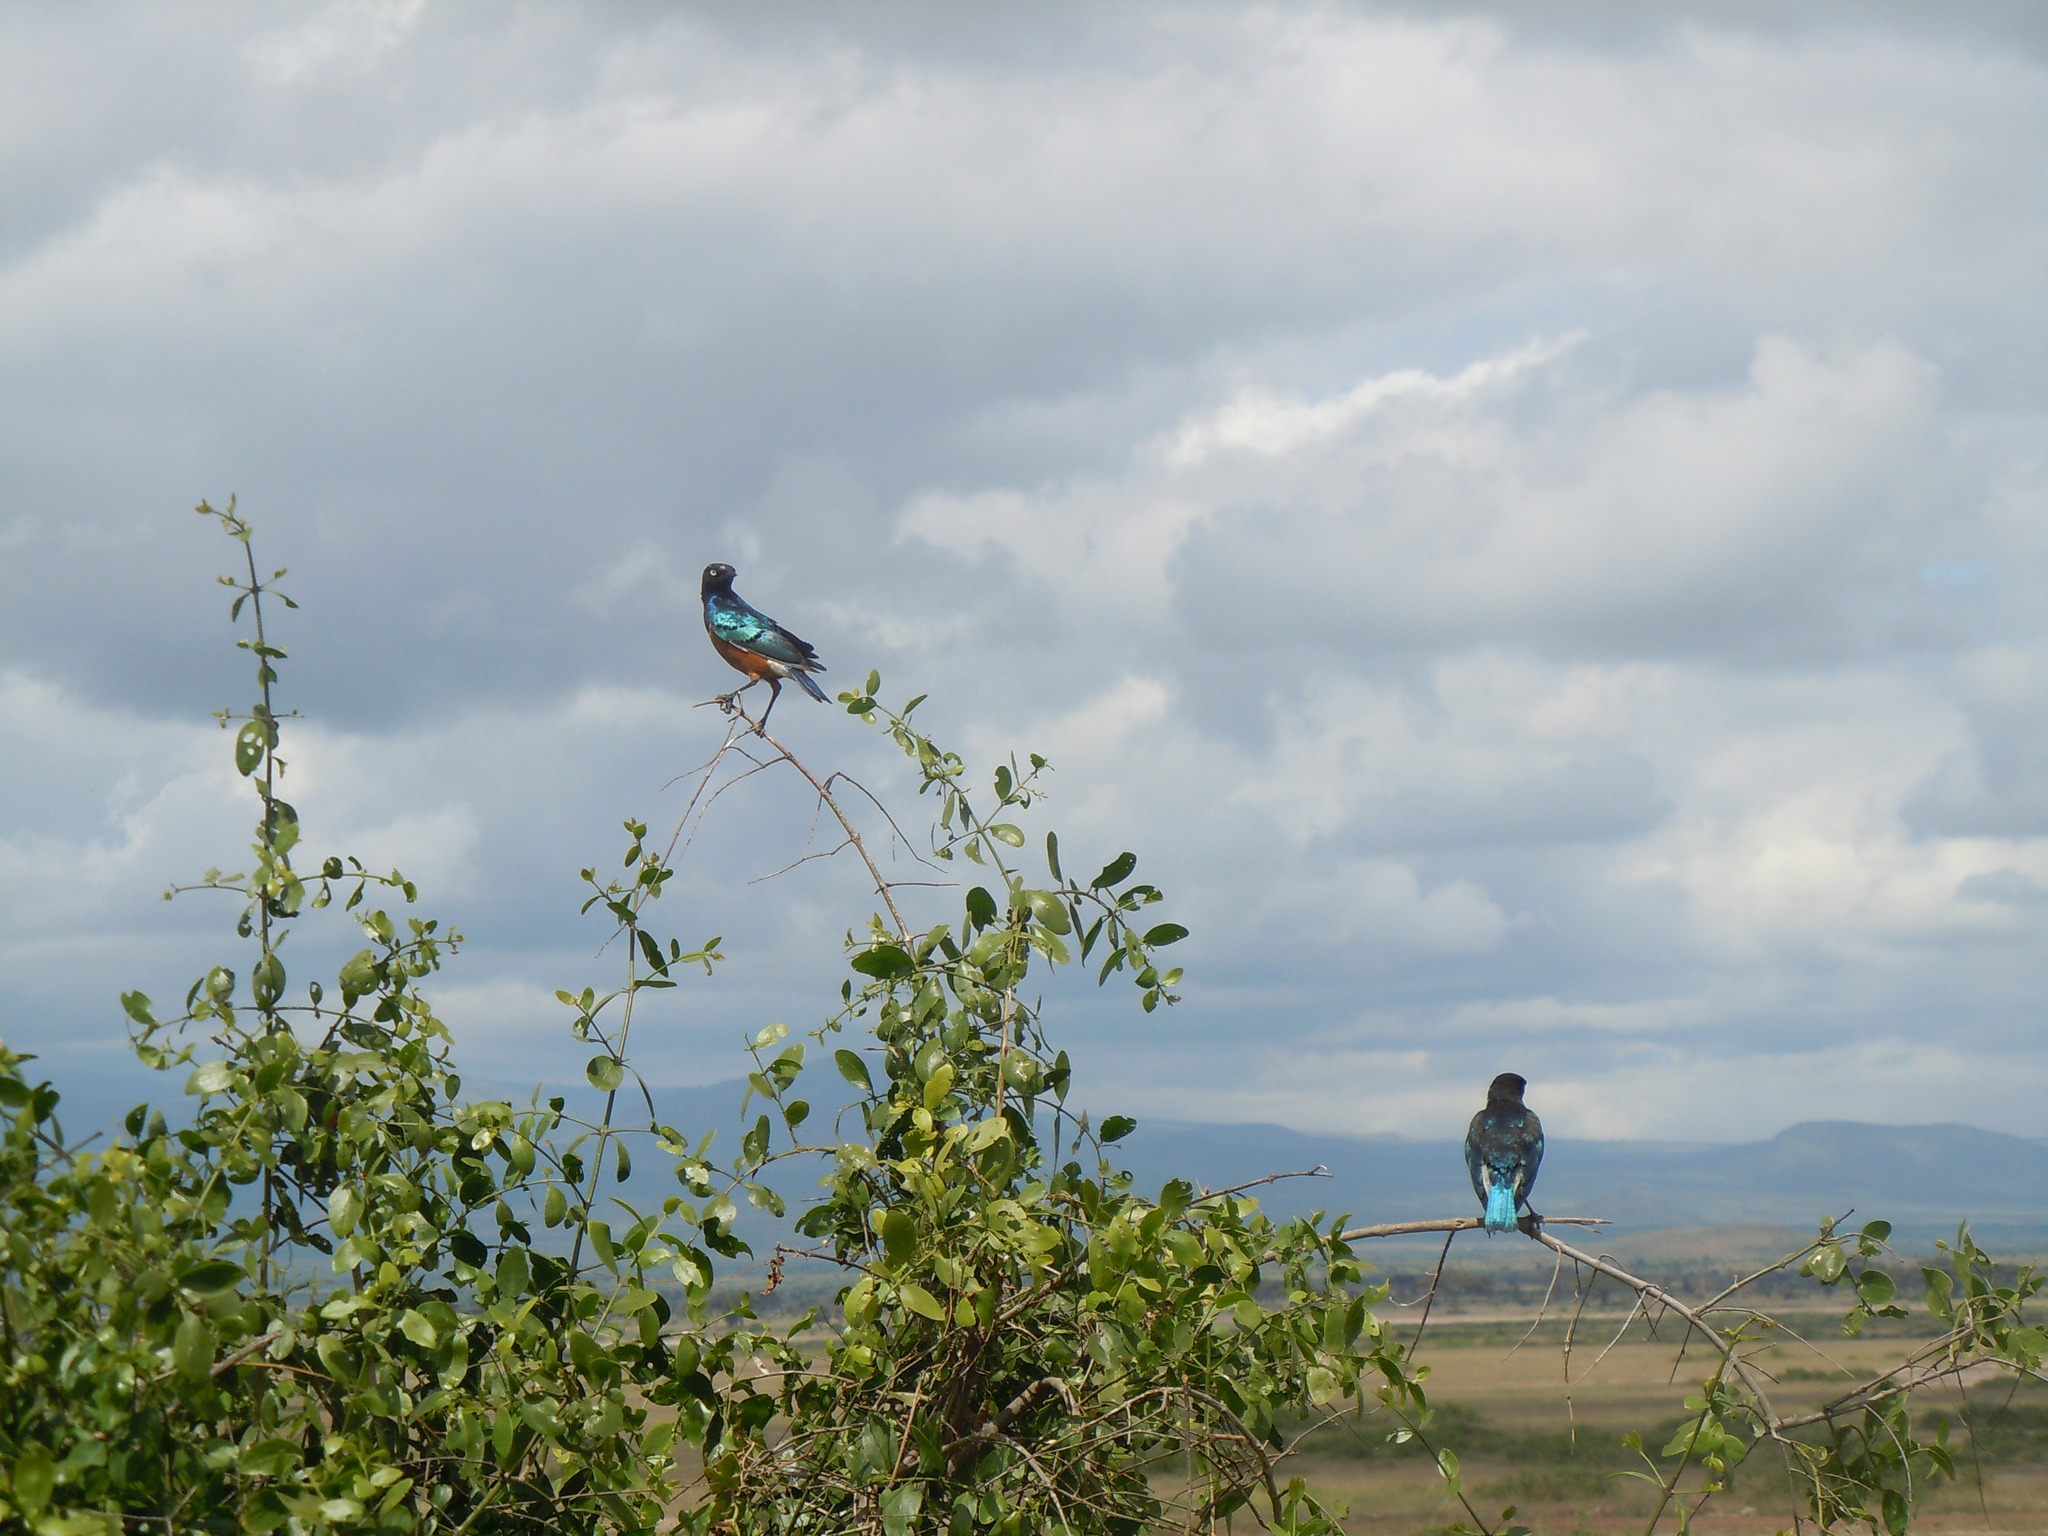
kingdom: Animalia
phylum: Chordata
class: Aves
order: Passeriformes
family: Sturnidae
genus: Lamprotornis
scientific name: Lamprotornis superbus
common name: Superb starling
